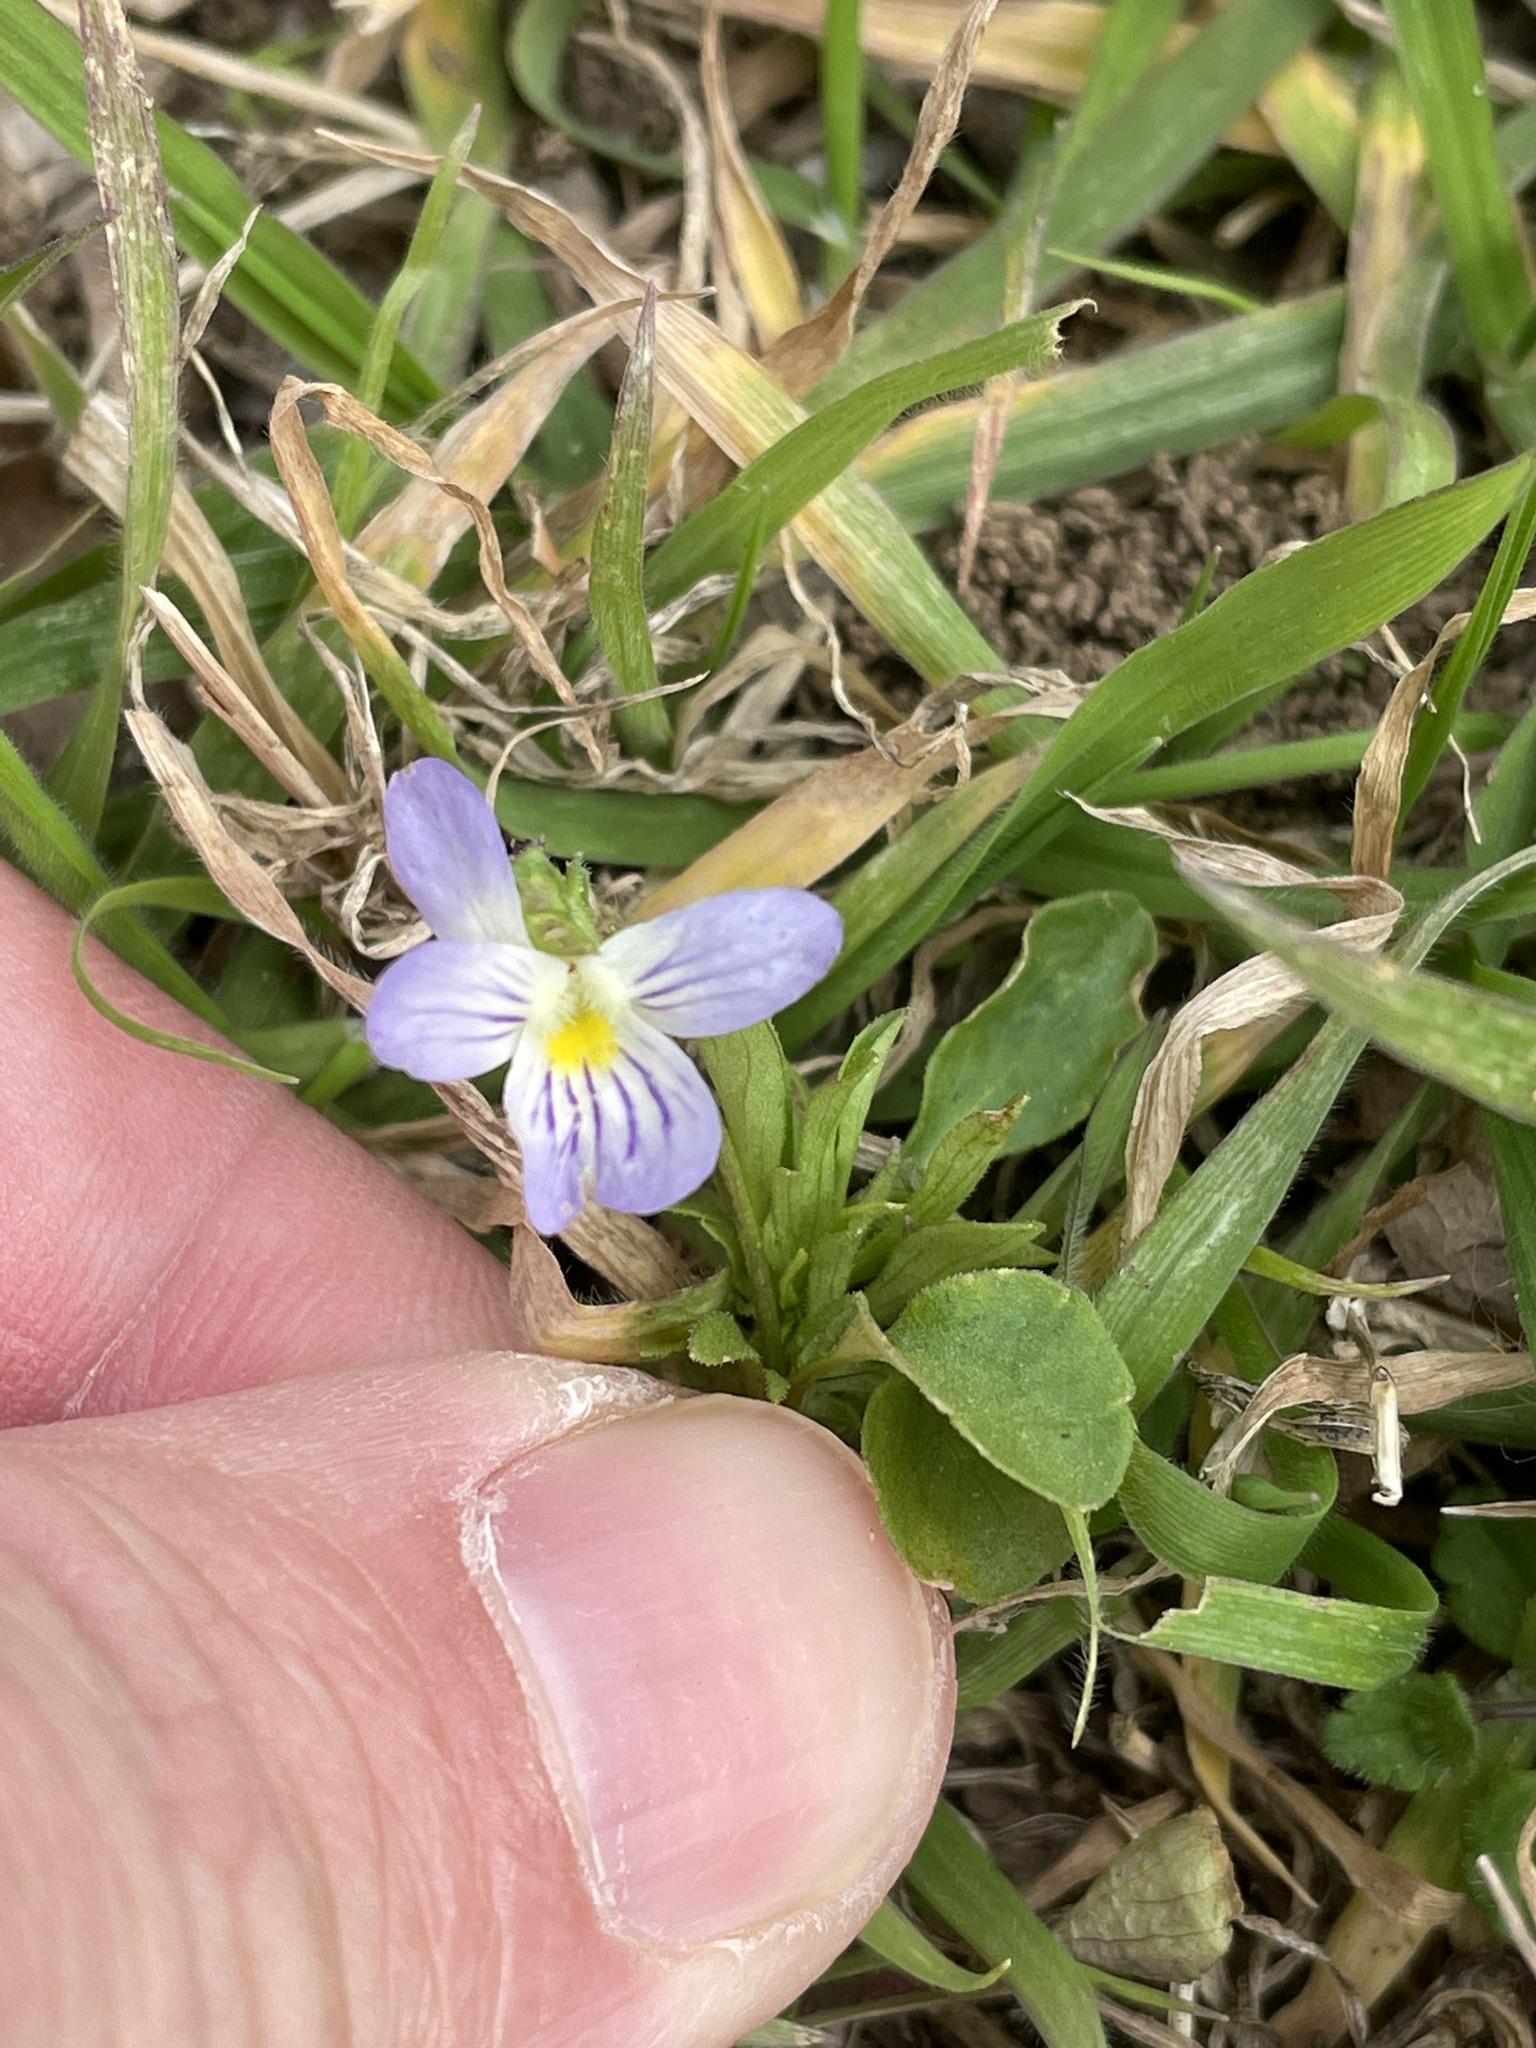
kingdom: Plantae
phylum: Tracheophyta
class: Magnoliopsida
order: Malpighiales
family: Violaceae
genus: Viola
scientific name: Viola rafinesquei
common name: American field pansy
